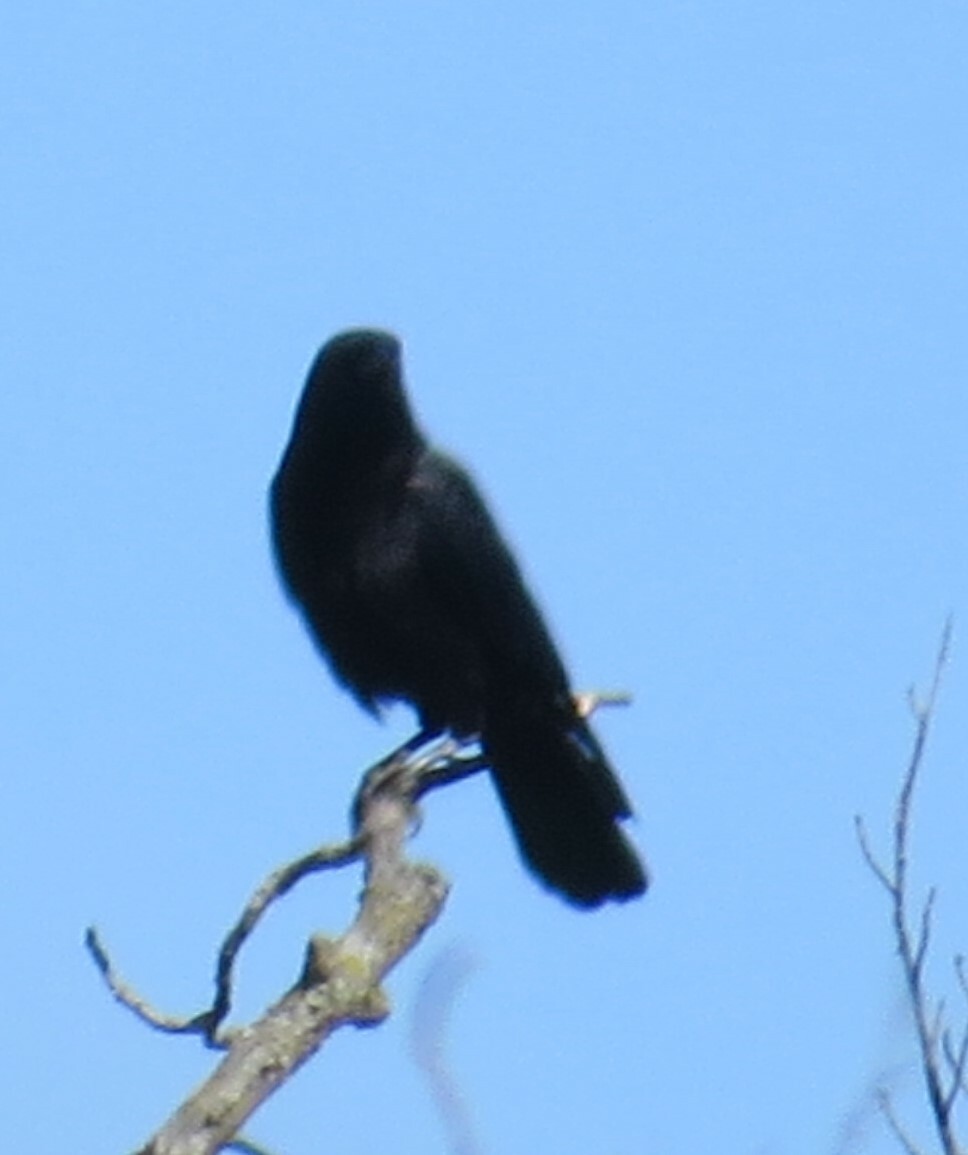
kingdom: Animalia
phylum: Chordata
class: Aves
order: Passeriformes
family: Corvidae
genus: Corvus
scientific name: Corvus brachyrhynchos
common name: American crow
